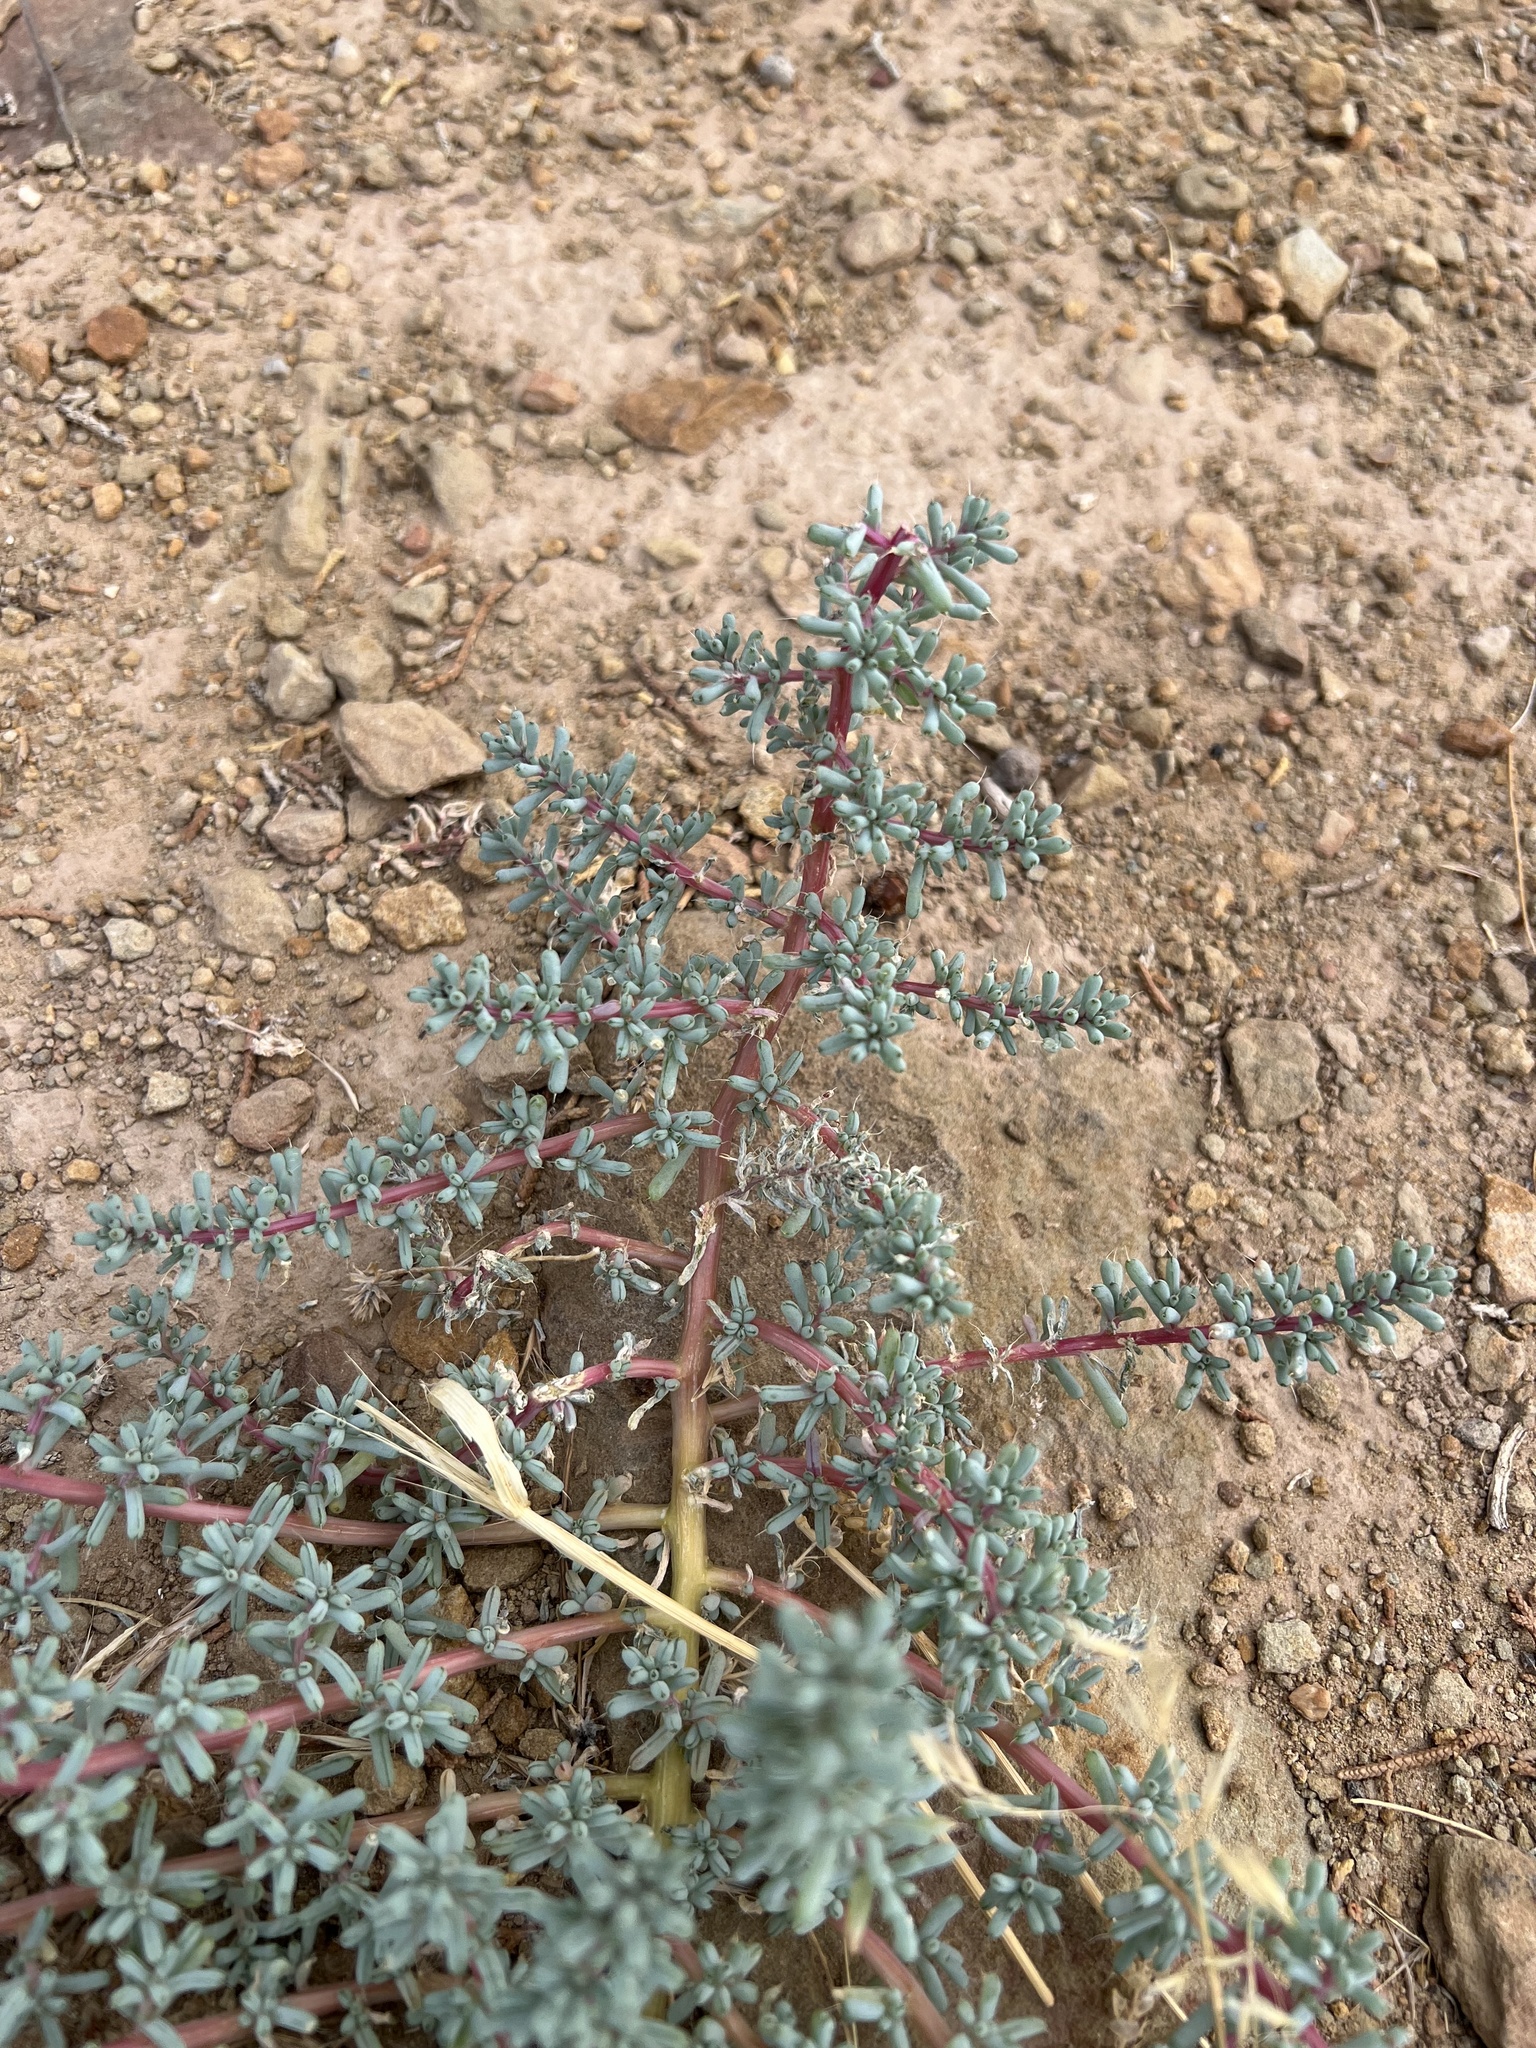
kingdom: Plantae
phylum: Tracheophyta
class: Magnoliopsida
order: Caryophyllales
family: Amaranthaceae
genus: Halogeton
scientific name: Halogeton glomeratus
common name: Saltlover
